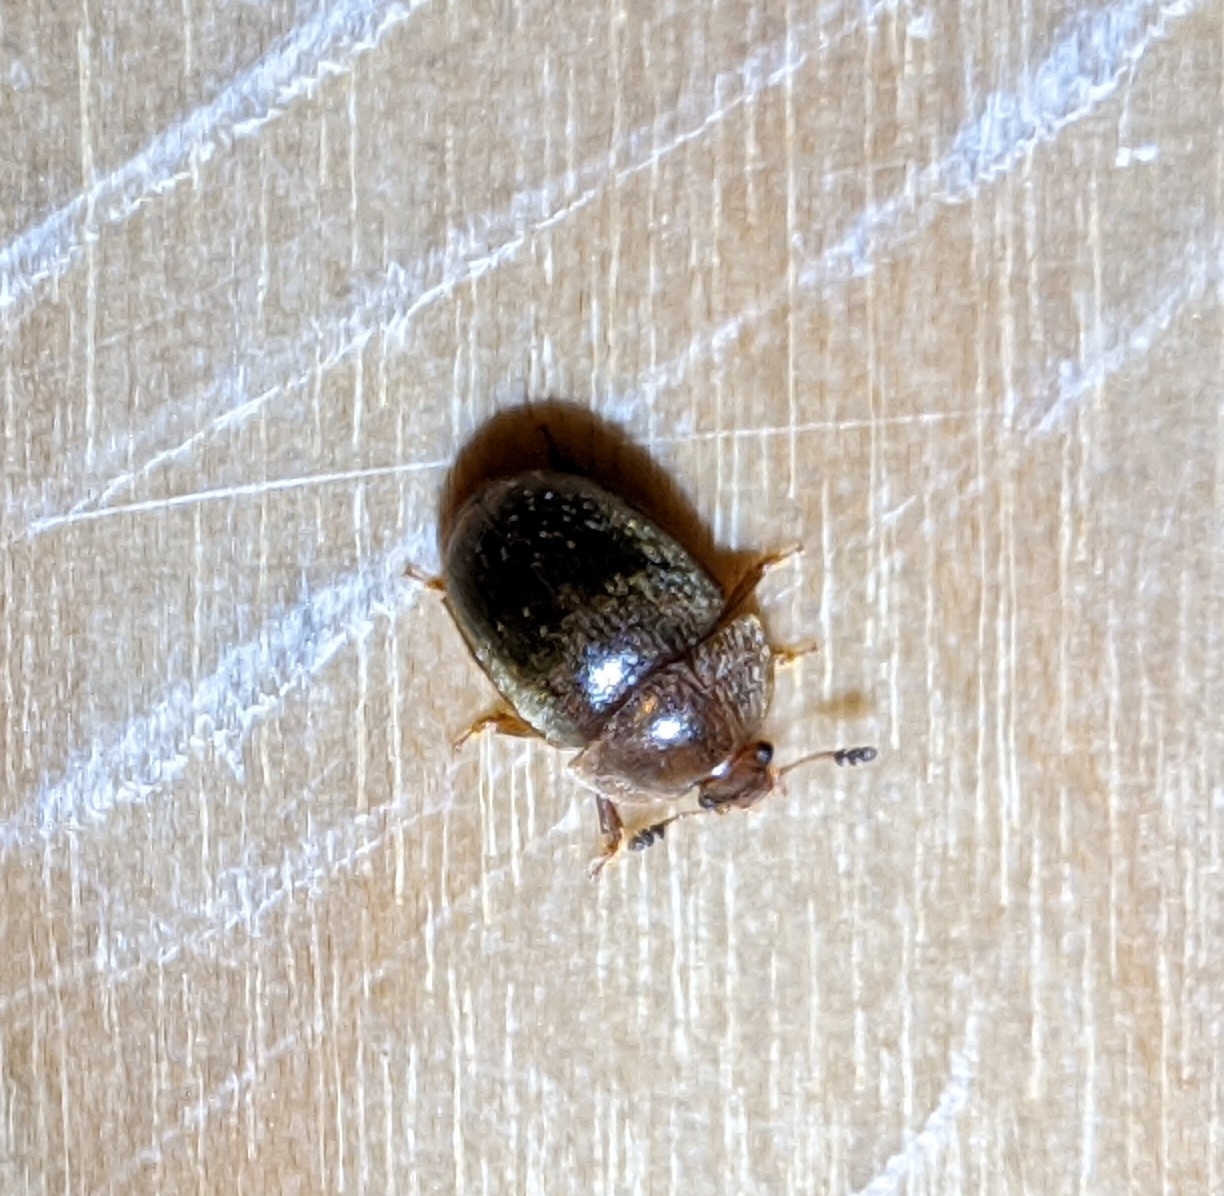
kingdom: Animalia
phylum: Arthropoda
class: Insecta
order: Coleoptera
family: Nitidulidae
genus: Cychramus
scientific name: Cychramus luteus
